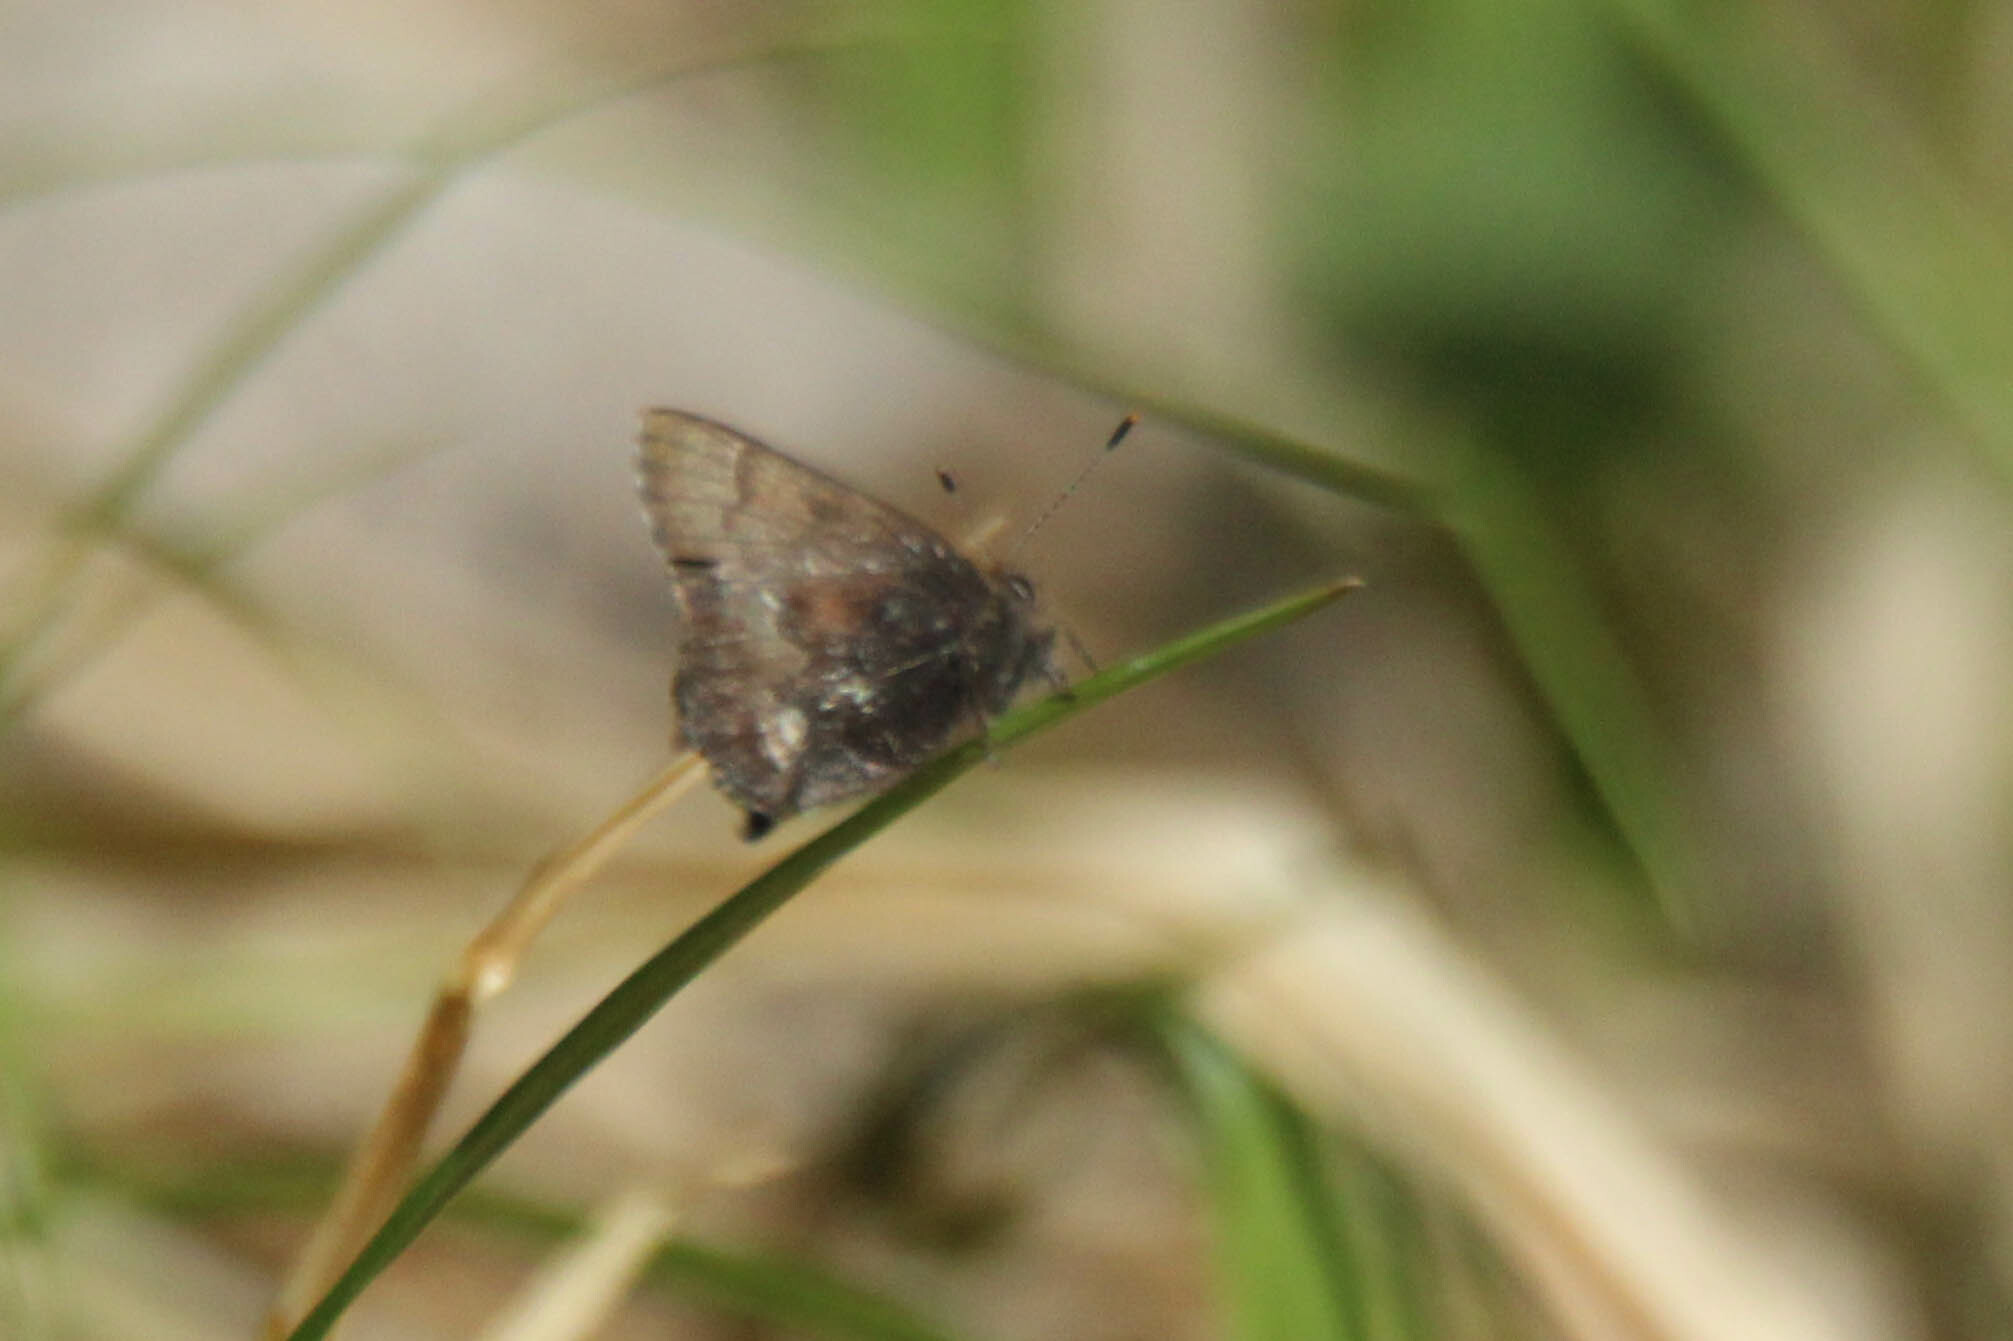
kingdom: Animalia
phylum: Arthropoda
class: Insecta
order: Lepidoptera
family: Lycaenidae
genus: Ginzia
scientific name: Ginzia Ahlbergia frivaldszkyi
